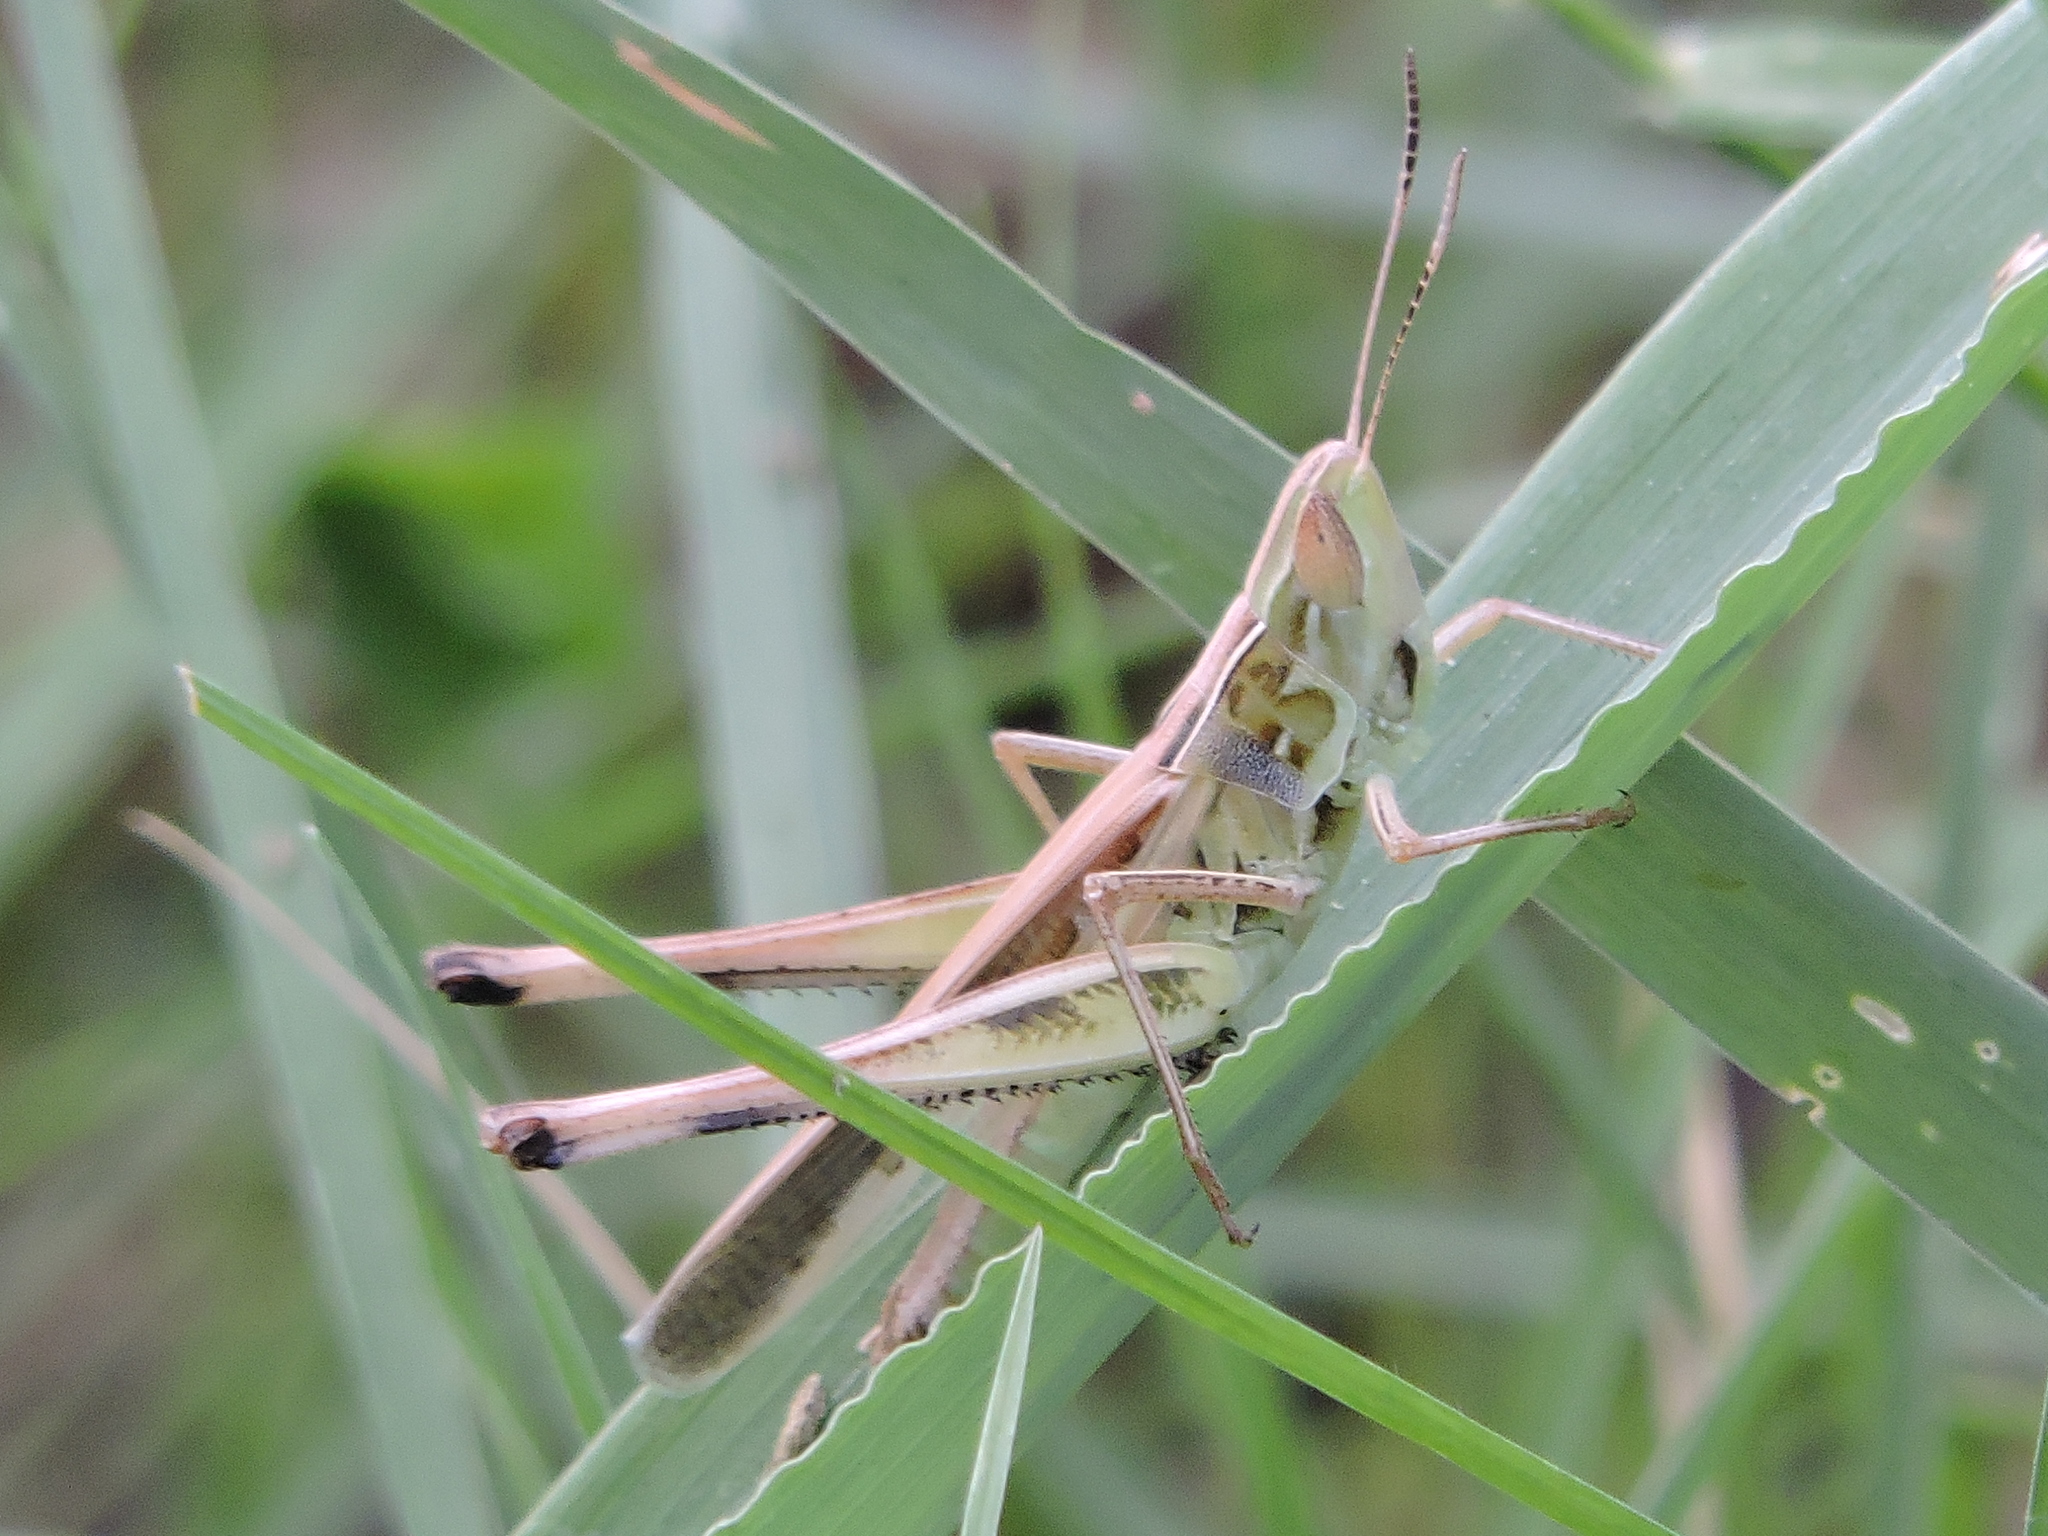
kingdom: Animalia
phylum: Arthropoda
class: Insecta
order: Orthoptera
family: Acrididae
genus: Syrbula
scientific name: Syrbula admirabilis
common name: Handsome grasshopper
